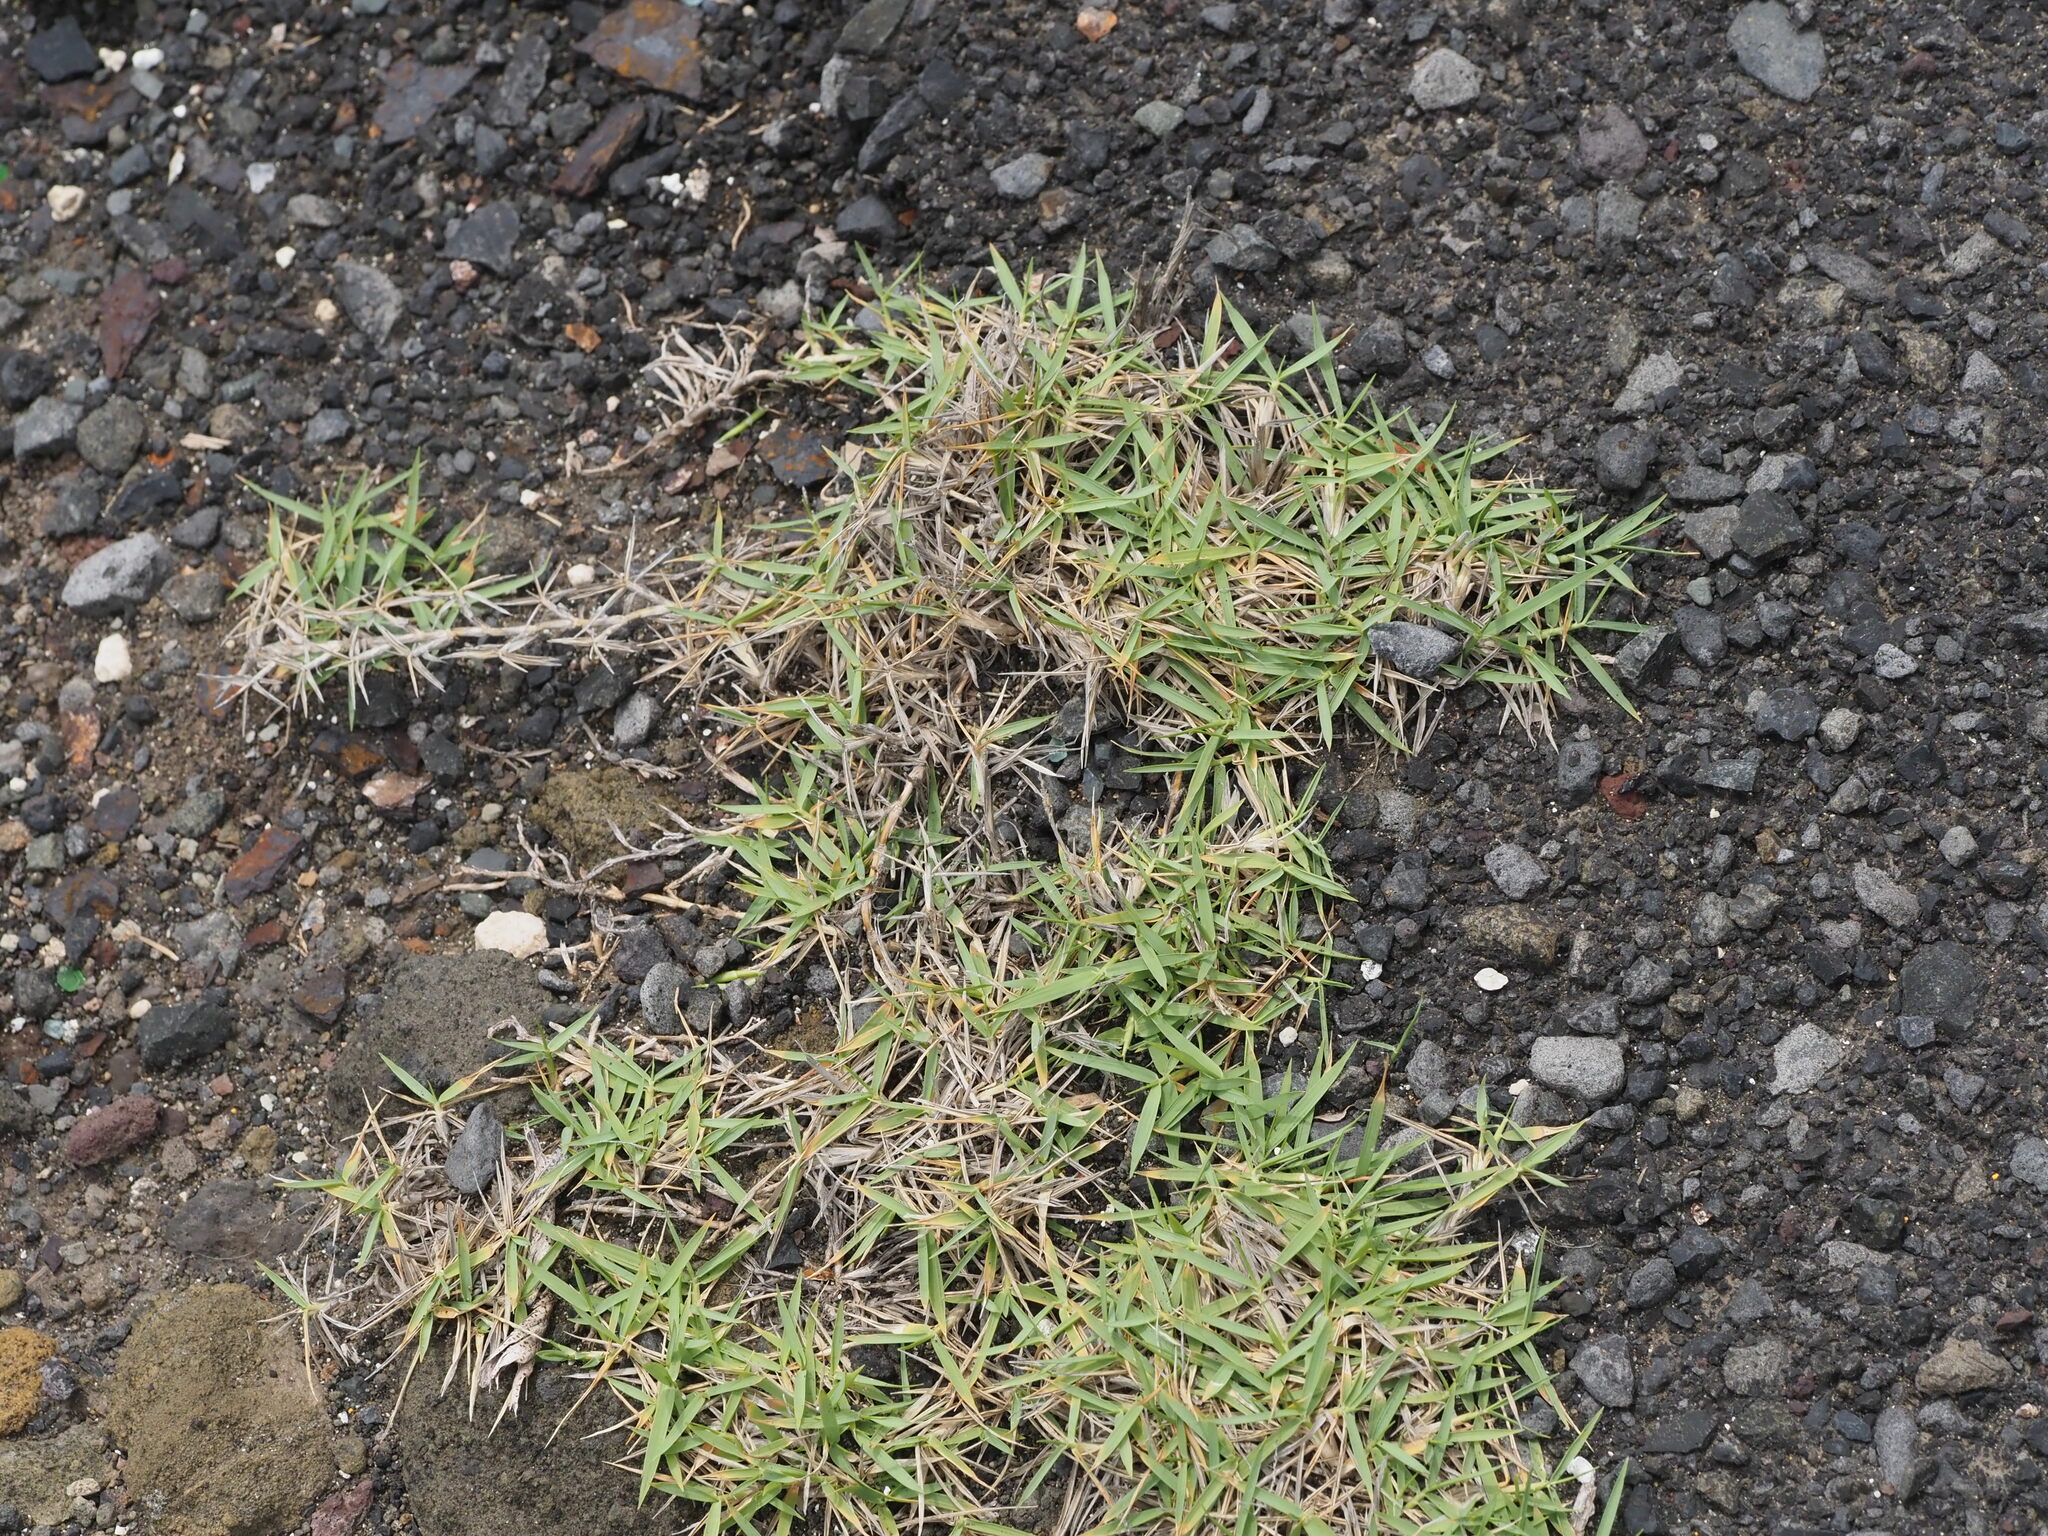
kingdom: Plantae
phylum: Tracheophyta
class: Liliopsida
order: Poales
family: Poaceae
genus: Zoysia
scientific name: Zoysia matrella
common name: Manila grass
